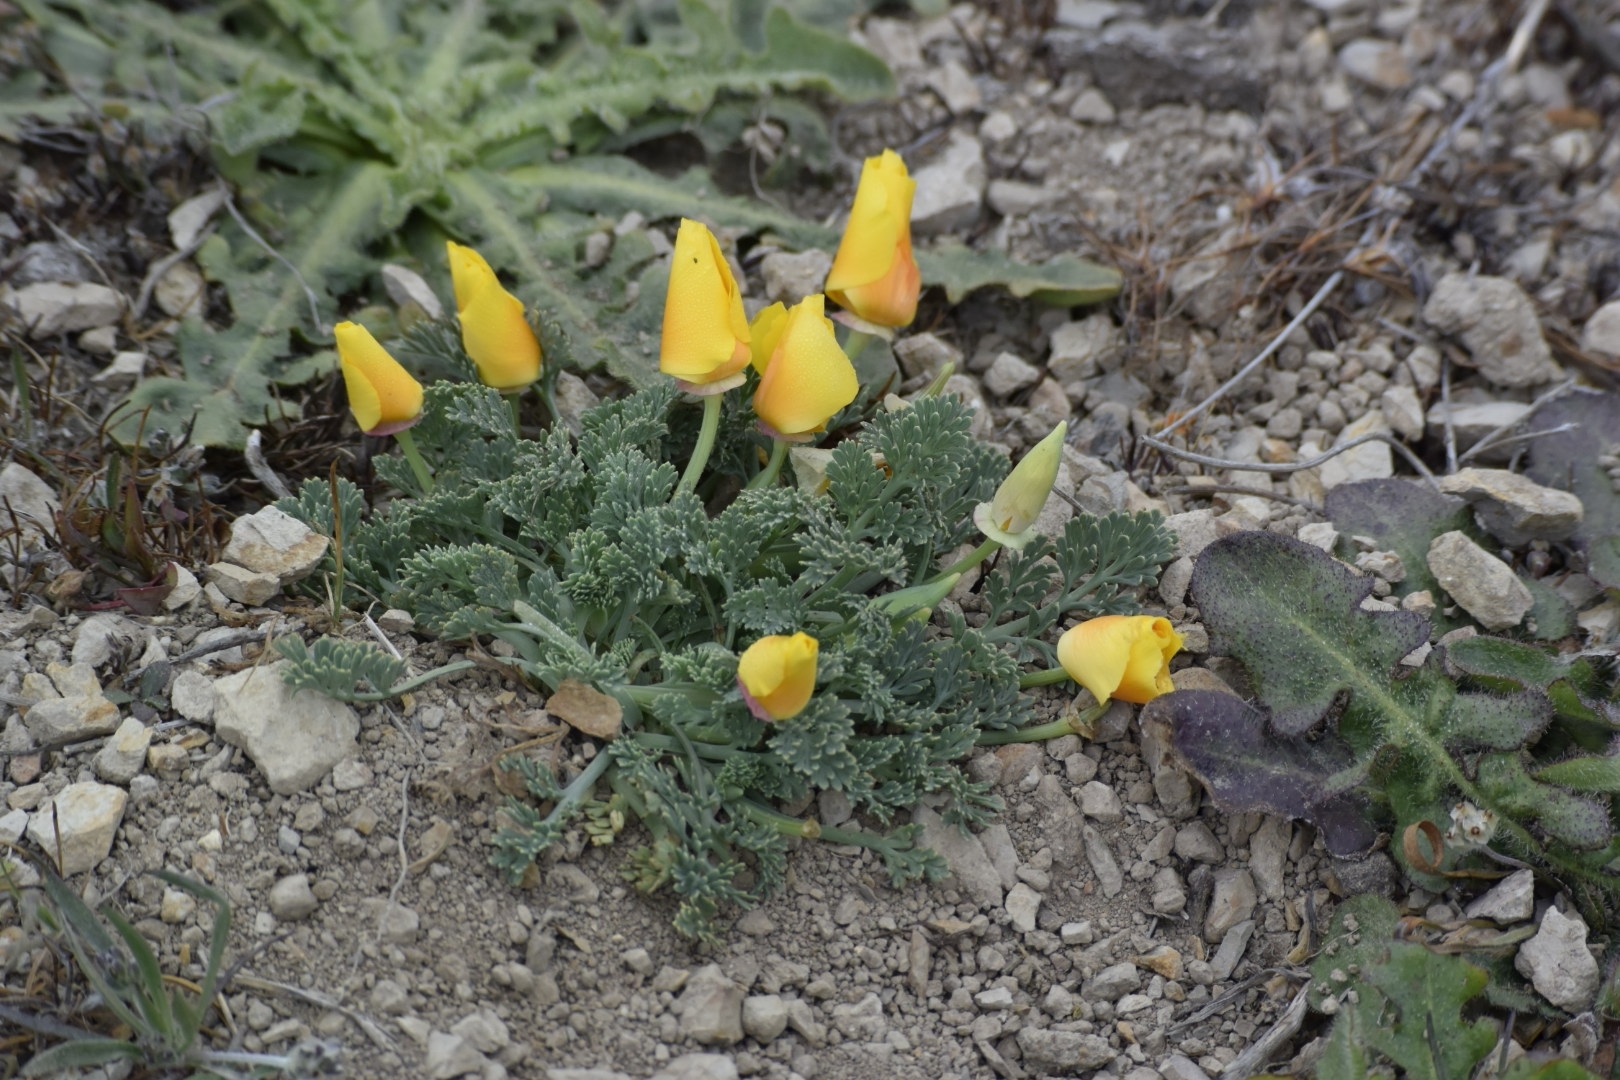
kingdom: Plantae
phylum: Tracheophyta
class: Magnoliopsida
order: Ranunculales
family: Papaveraceae
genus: Eschscholzia
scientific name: Eschscholzia californica
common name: California poppy
